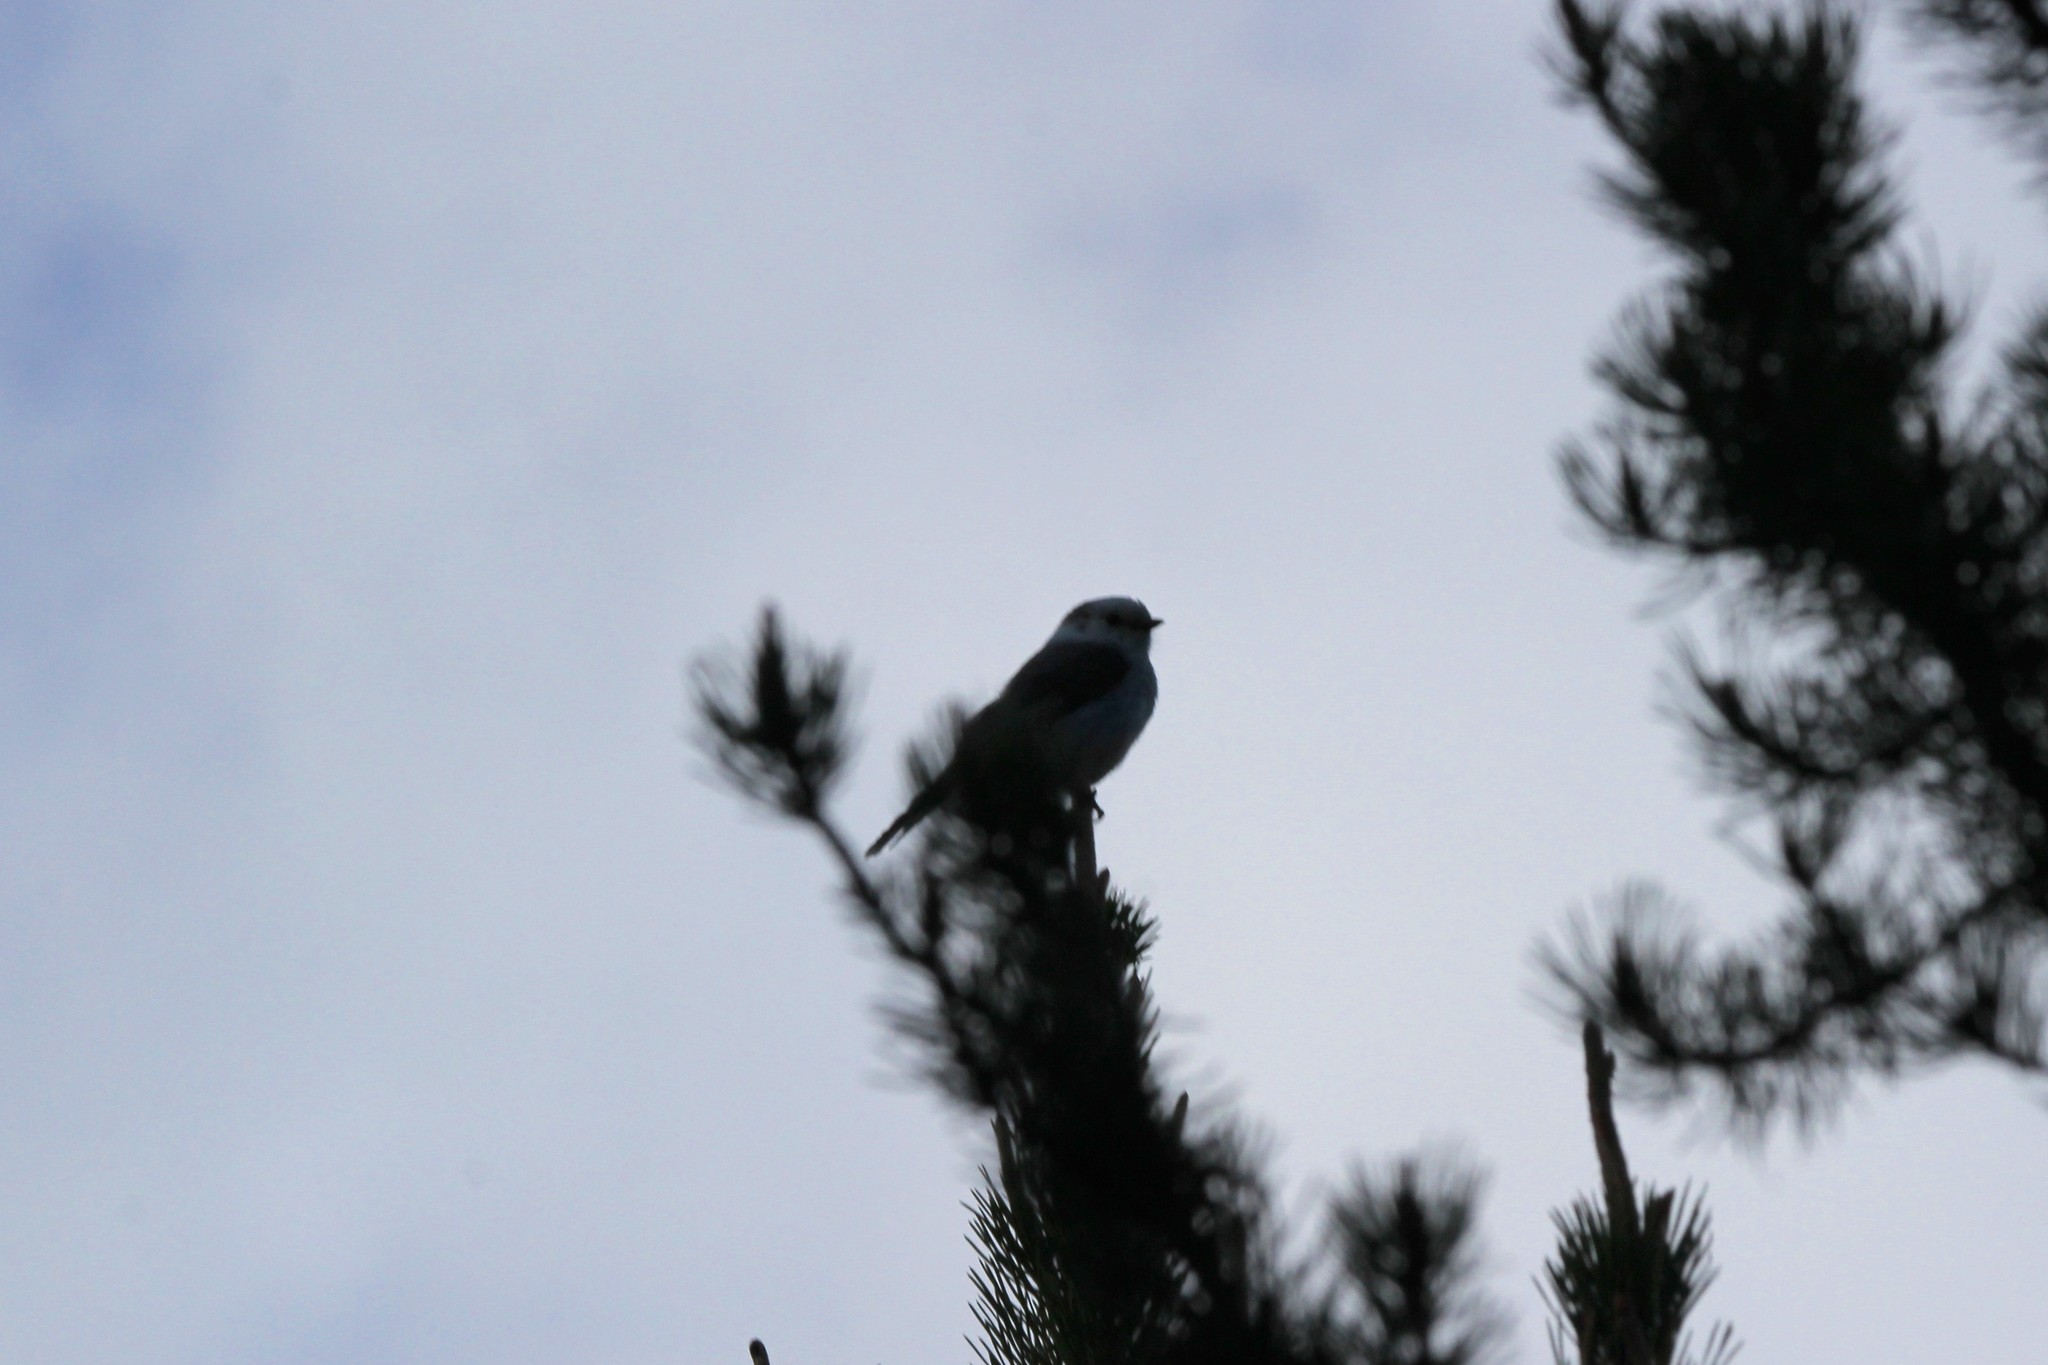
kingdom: Animalia
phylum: Chordata
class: Aves
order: Passeriformes
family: Corvidae
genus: Perisoreus
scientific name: Perisoreus canadensis
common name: Gray jay
